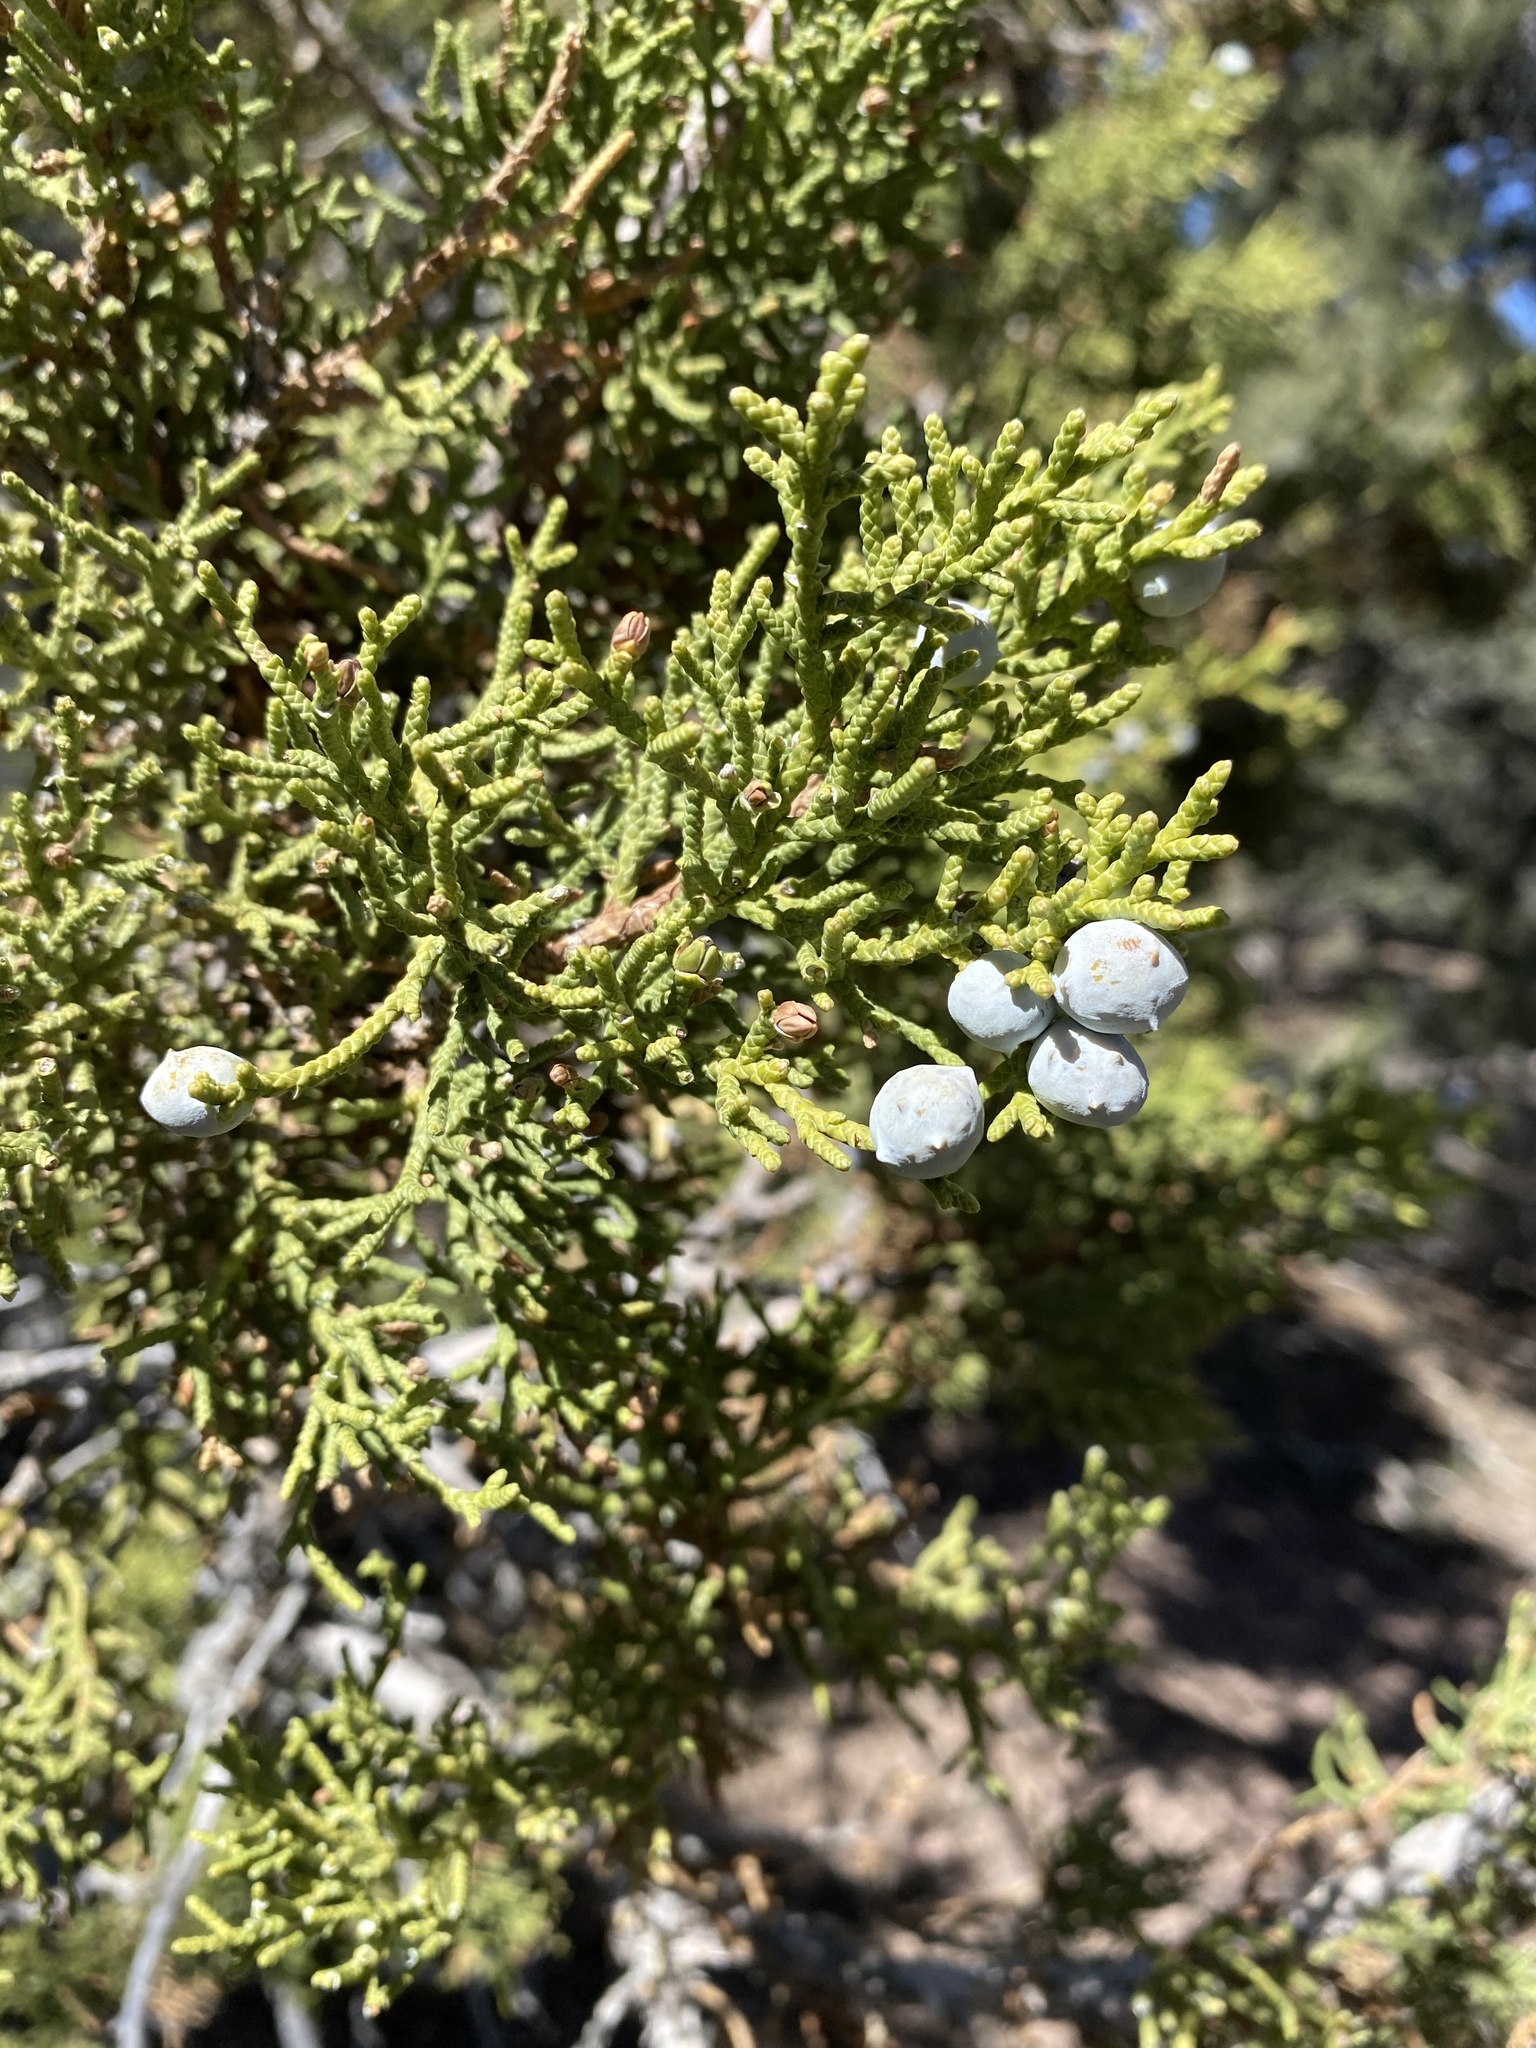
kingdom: Plantae
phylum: Tracheophyta
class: Pinopsida
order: Pinales
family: Cupressaceae
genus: Juniperus
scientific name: Juniperus osteosperma
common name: Utah juniper
